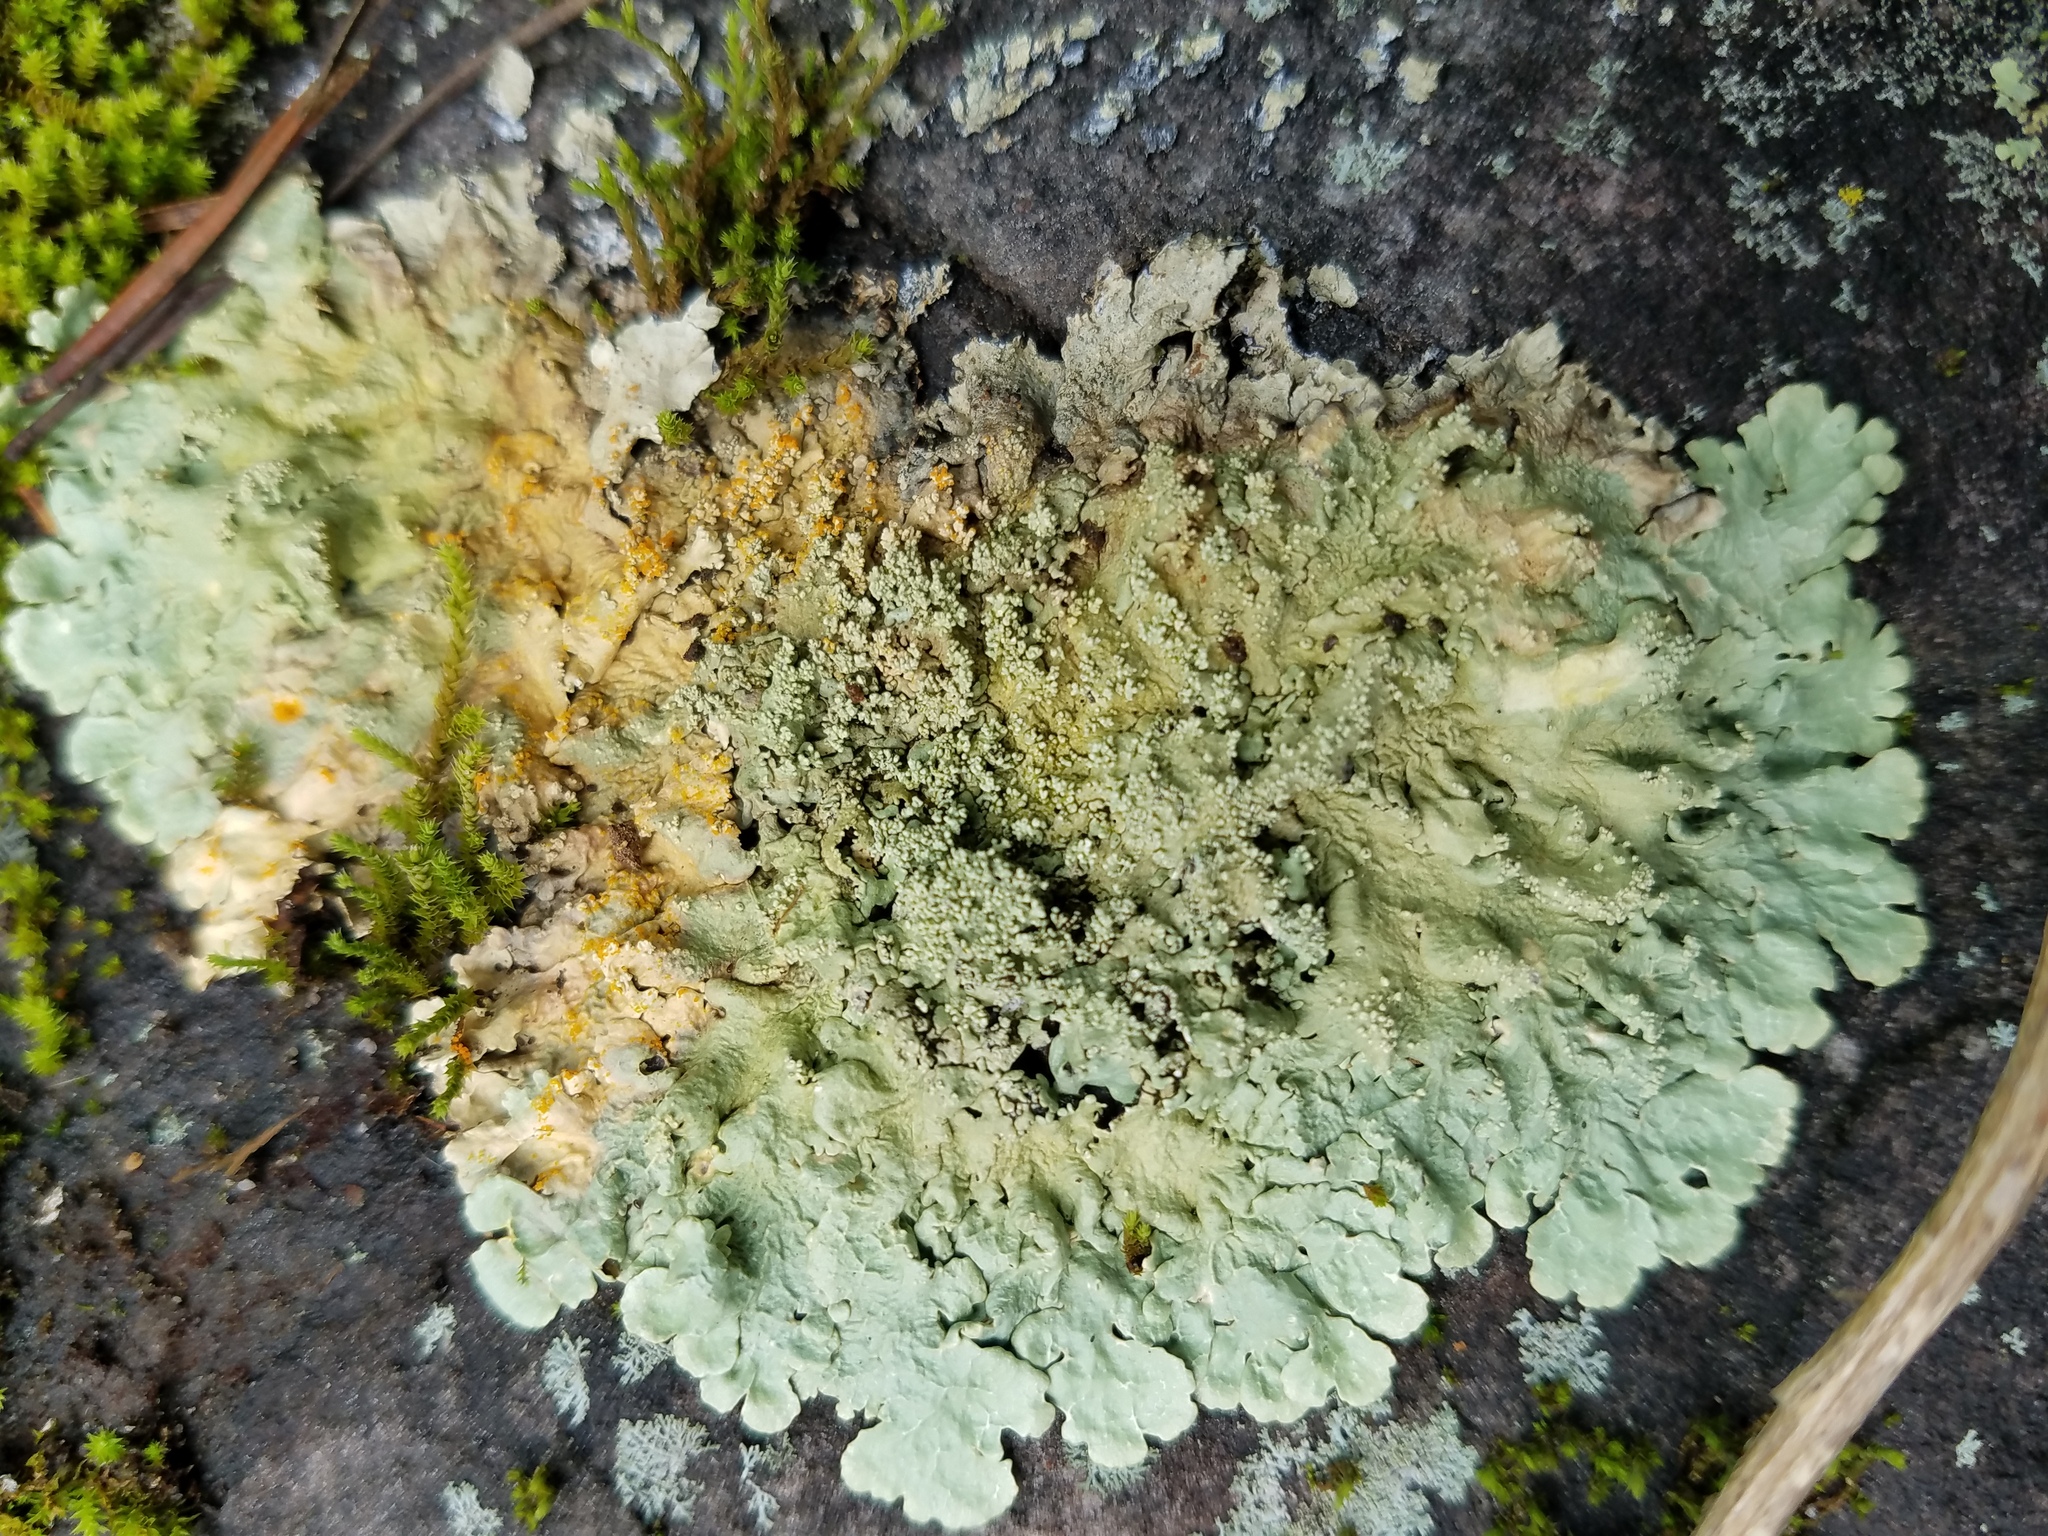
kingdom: Fungi
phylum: Ascomycota
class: Lecanoromycetes
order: Lecanorales
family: Parmeliaceae
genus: Flavoparmelia
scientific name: Flavoparmelia baltimorensis
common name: Rock greenshield
